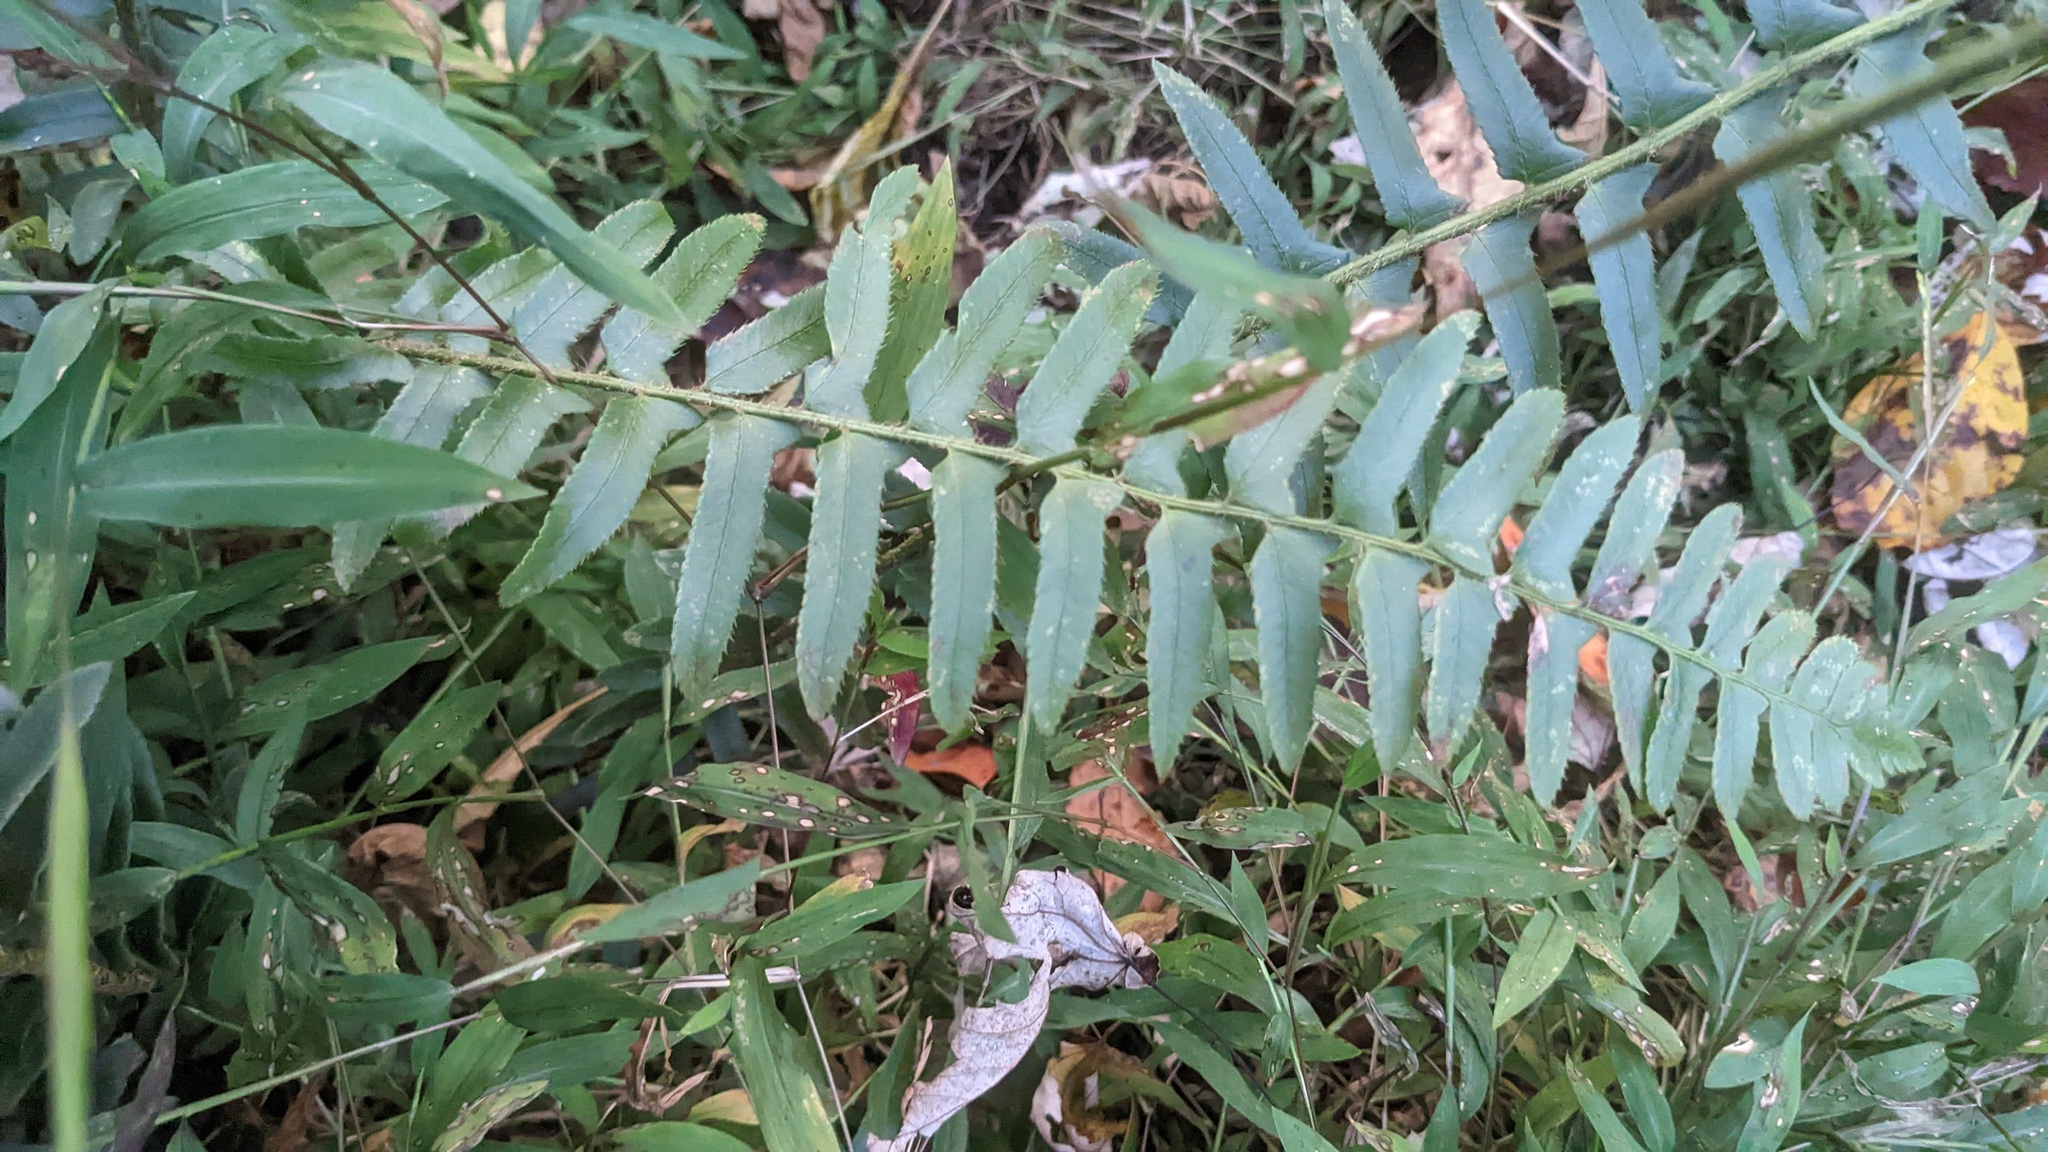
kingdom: Plantae
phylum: Tracheophyta
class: Polypodiopsida
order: Polypodiales
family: Dryopteridaceae
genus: Polystichum
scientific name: Polystichum acrostichoides
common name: Christmas fern
